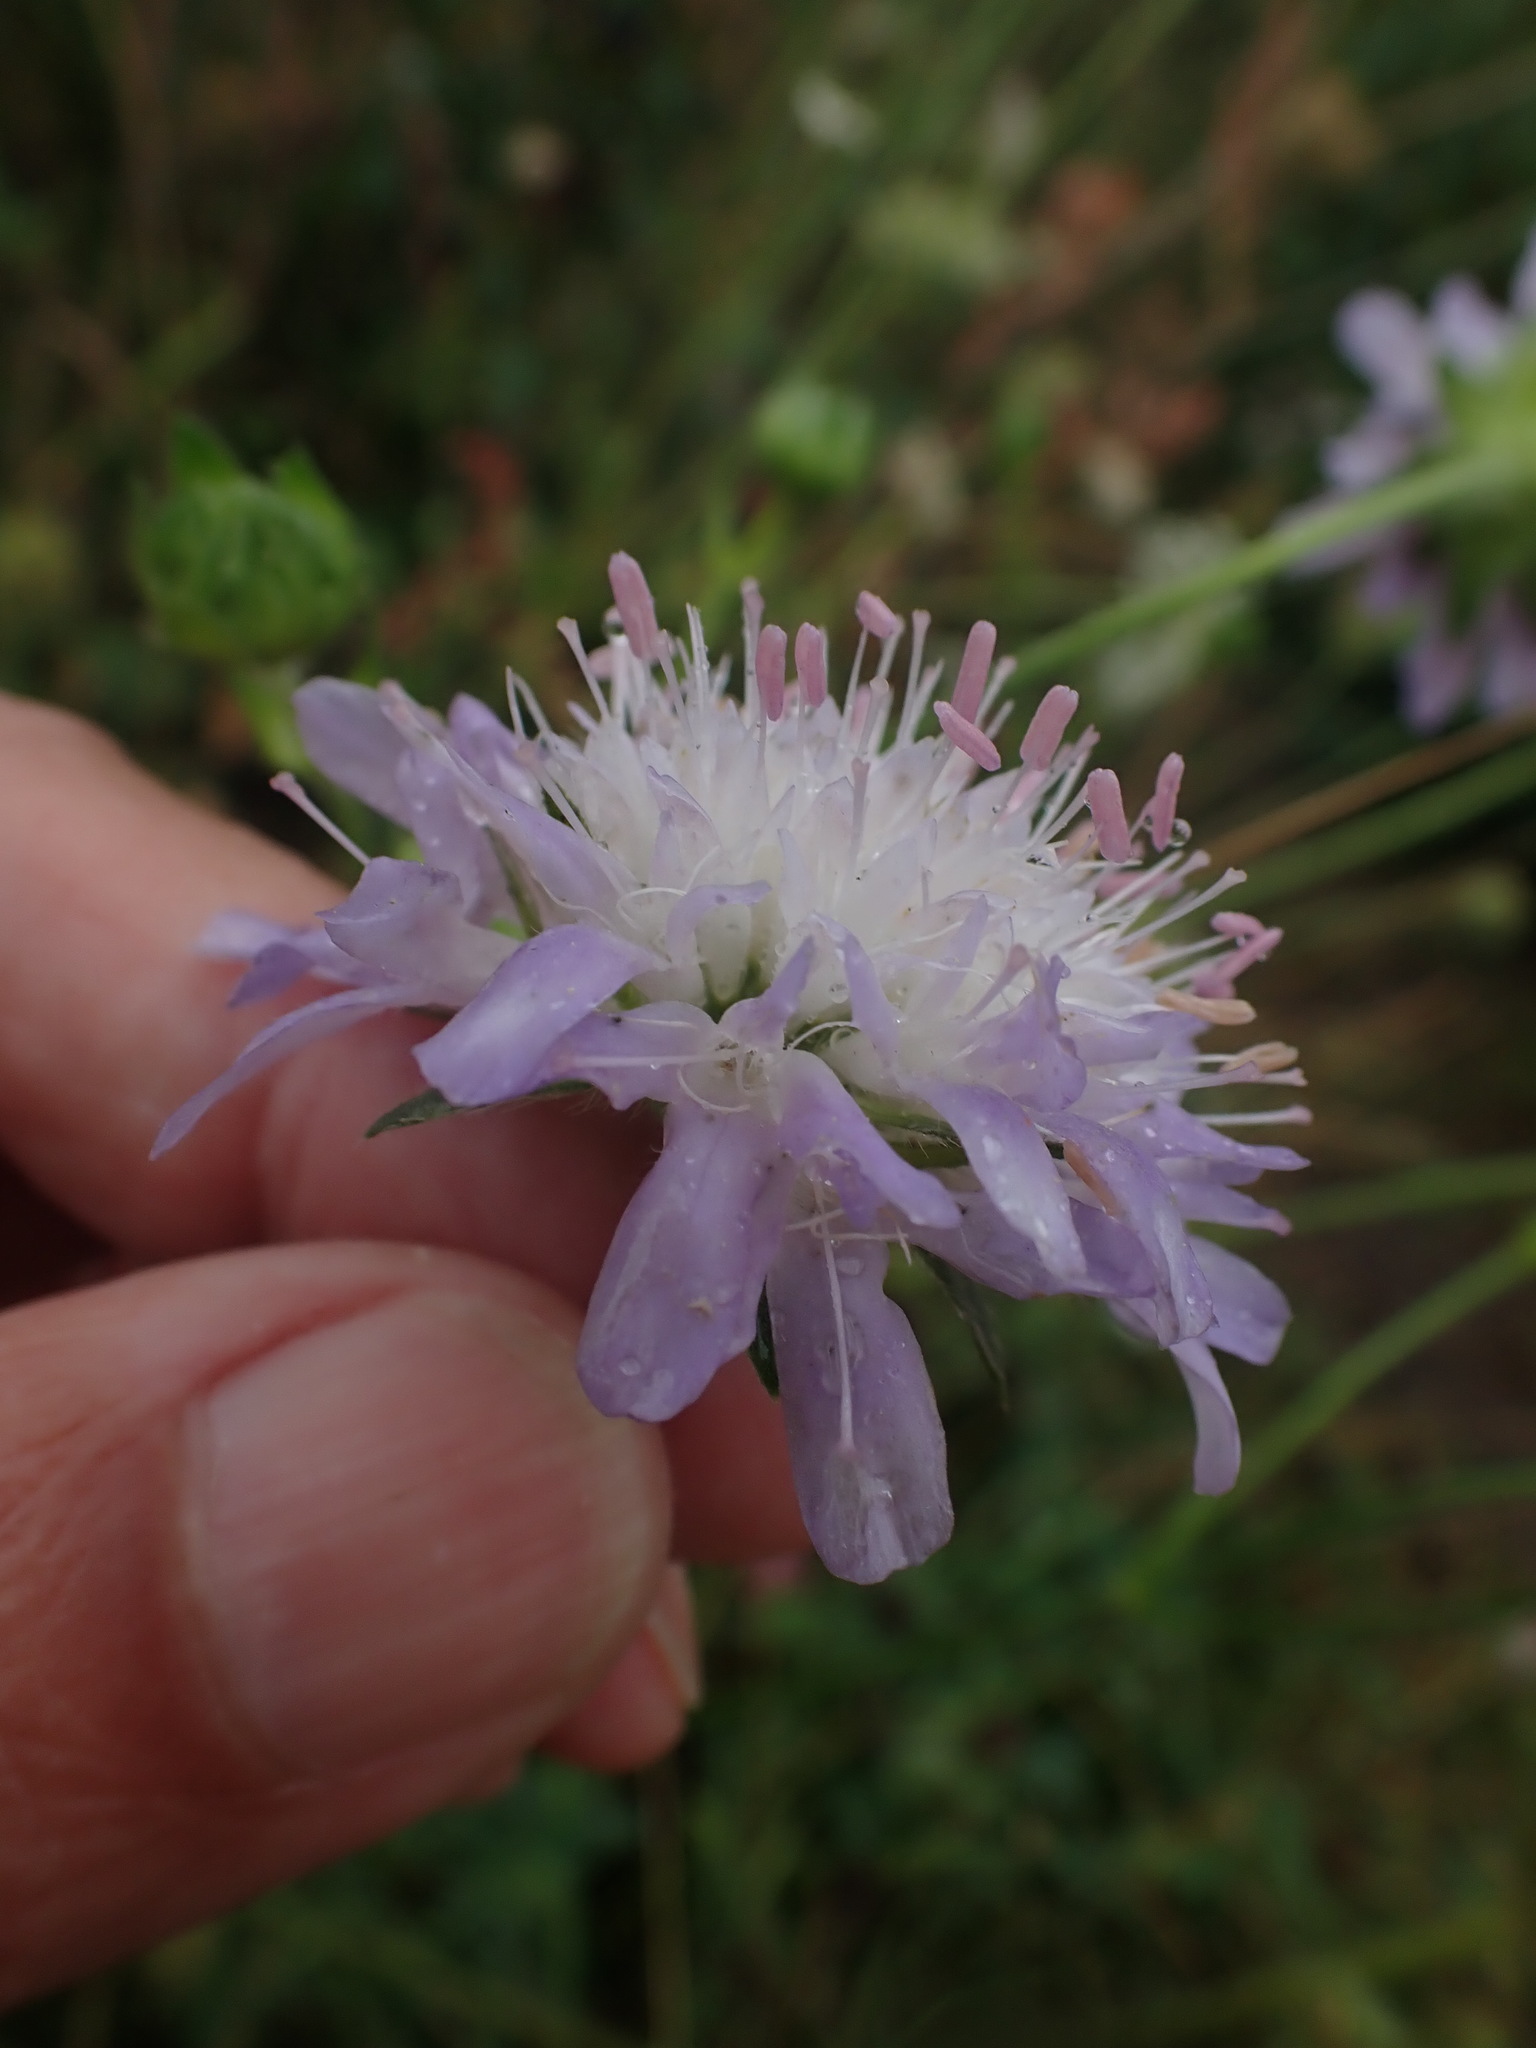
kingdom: Plantae
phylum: Tracheophyta
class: Magnoliopsida
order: Dipsacales
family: Caprifoliaceae
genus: Knautia
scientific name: Knautia arvensis
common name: Field scabiosa
